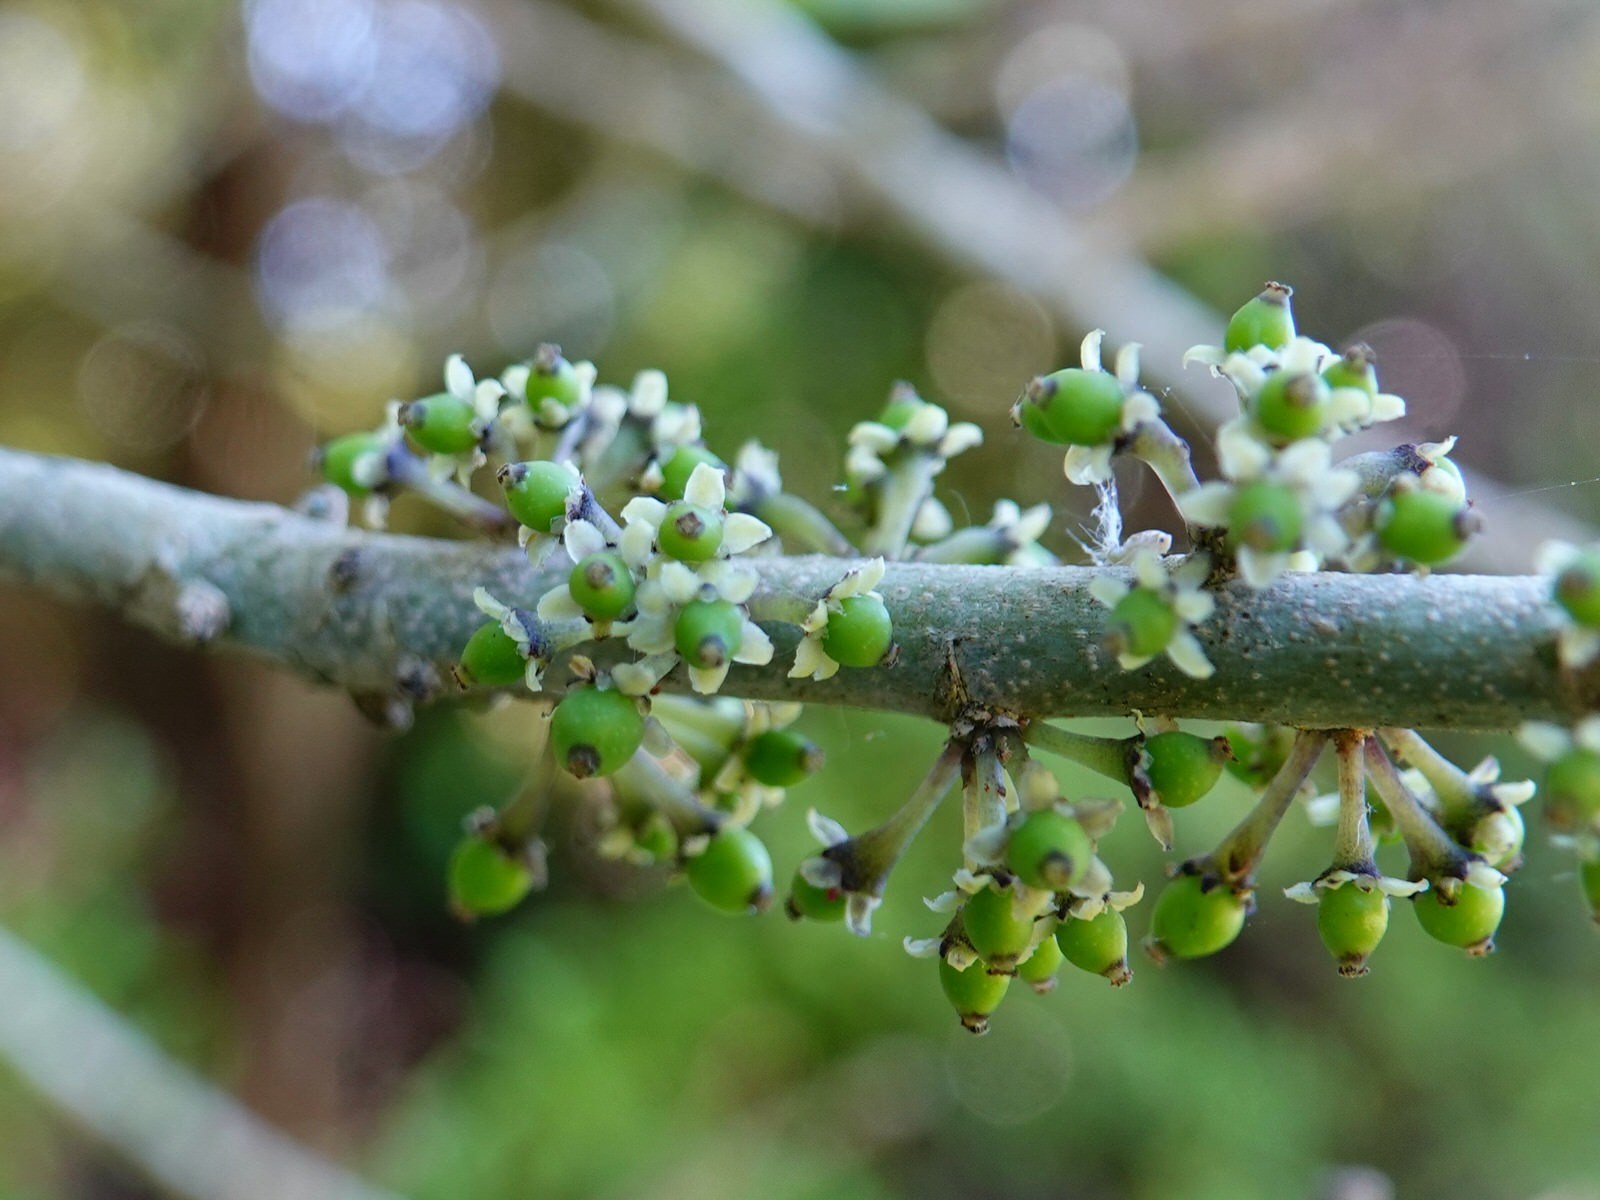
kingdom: Plantae
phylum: Tracheophyta
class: Magnoliopsida
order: Malpighiales
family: Violaceae
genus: Melicytus
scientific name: Melicytus ramiflorus
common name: Mahoe
